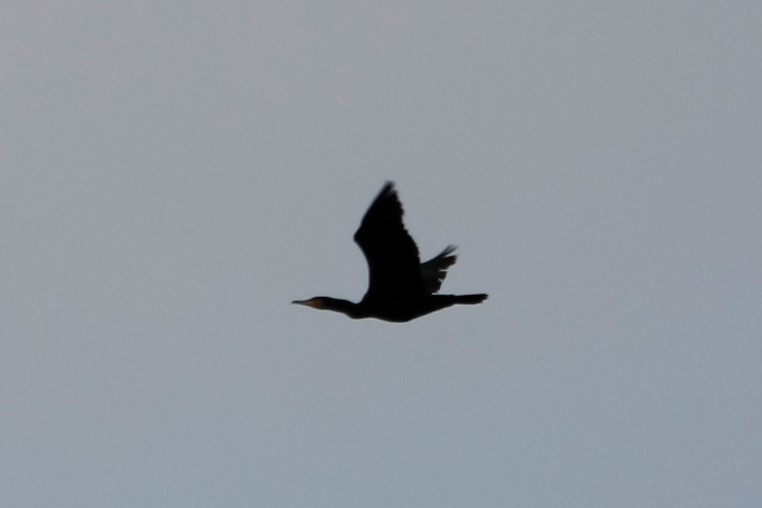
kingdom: Animalia
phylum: Chordata
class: Aves
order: Suliformes
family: Phalacrocoracidae
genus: Phalacrocorax
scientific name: Phalacrocorax carbo
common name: Great cormorant
